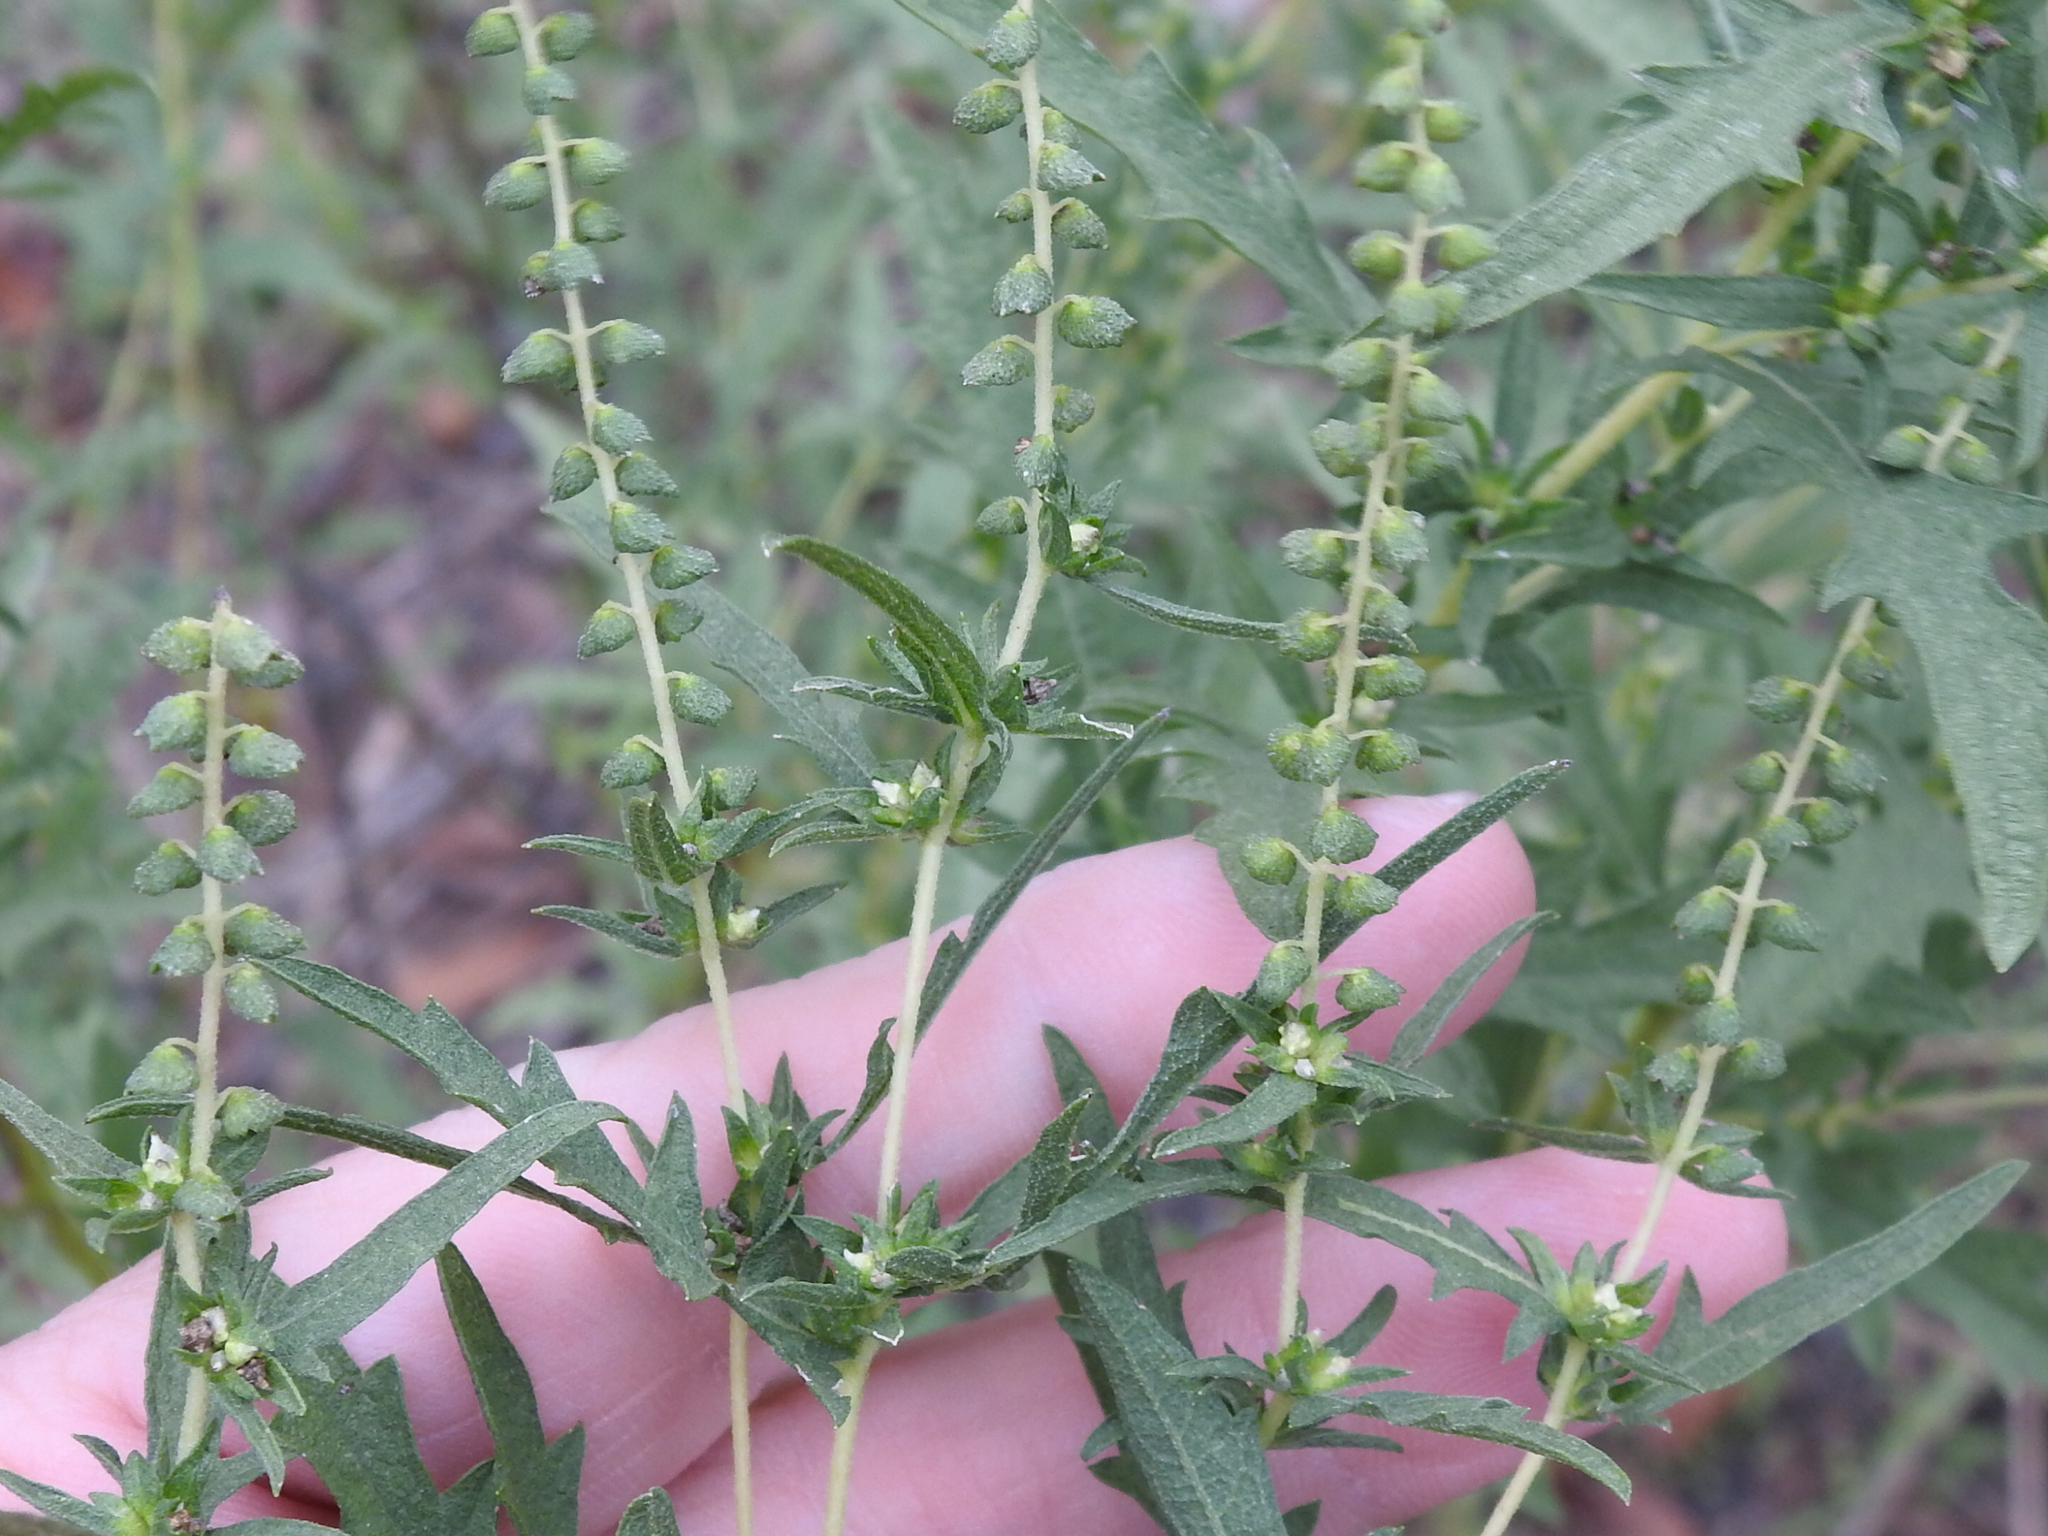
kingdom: Plantae
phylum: Tracheophyta
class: Magnoliopsida
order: Asterales
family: Asteraceae
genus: Ambrosia
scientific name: Ambrosia psilostachya
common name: Perennial ragweed
